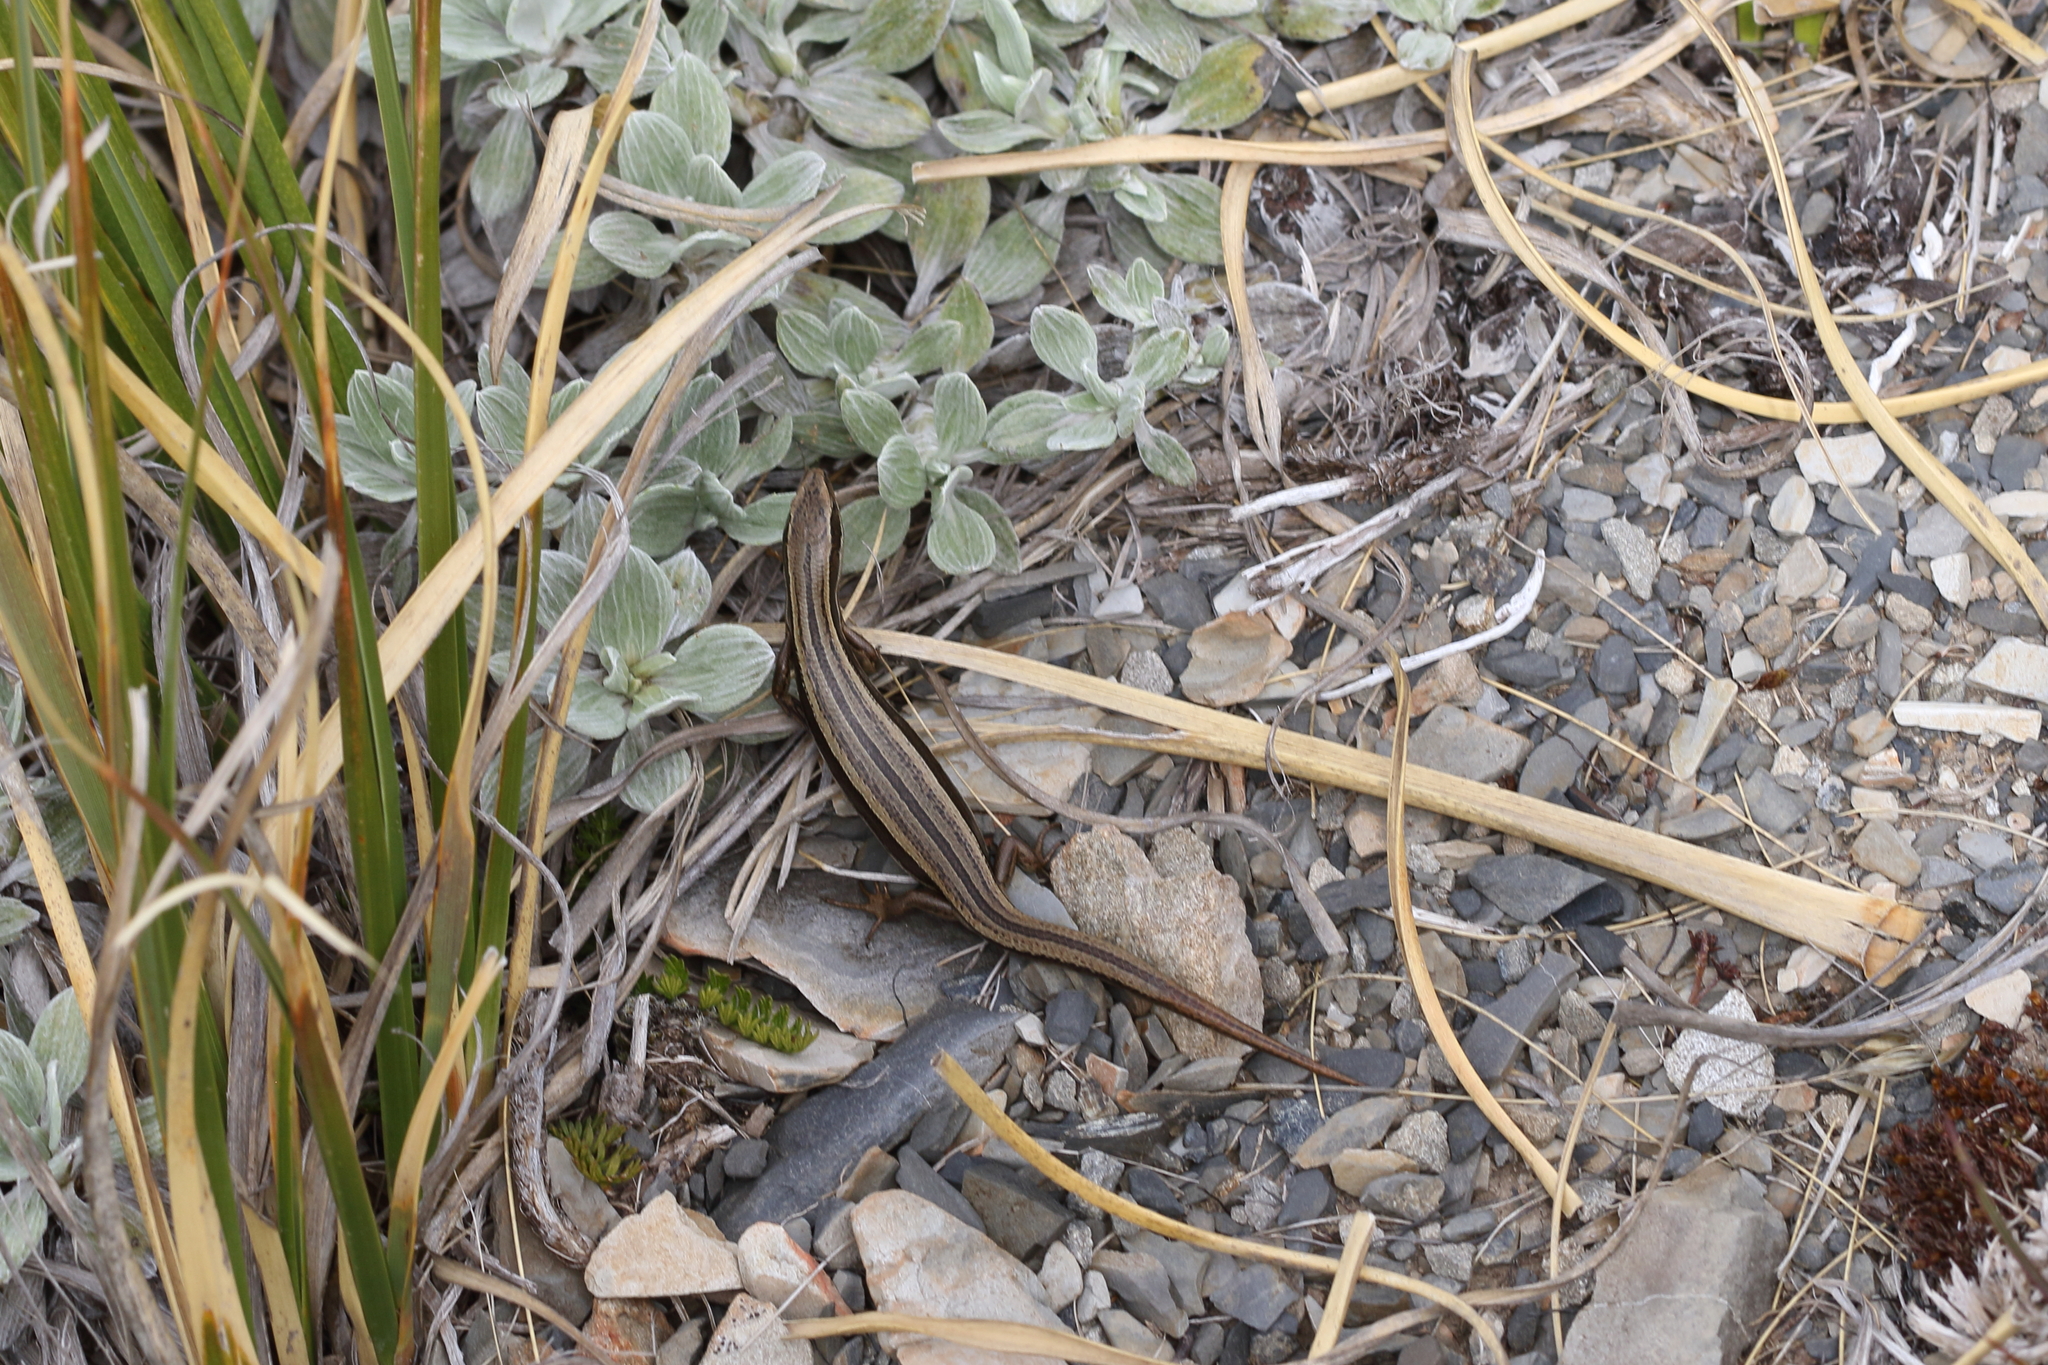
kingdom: Animalia
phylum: Chordata
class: Squamata
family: Scincidae
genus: Oligosoma
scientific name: Oligosoma polychroma
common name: Common new zealand skink
